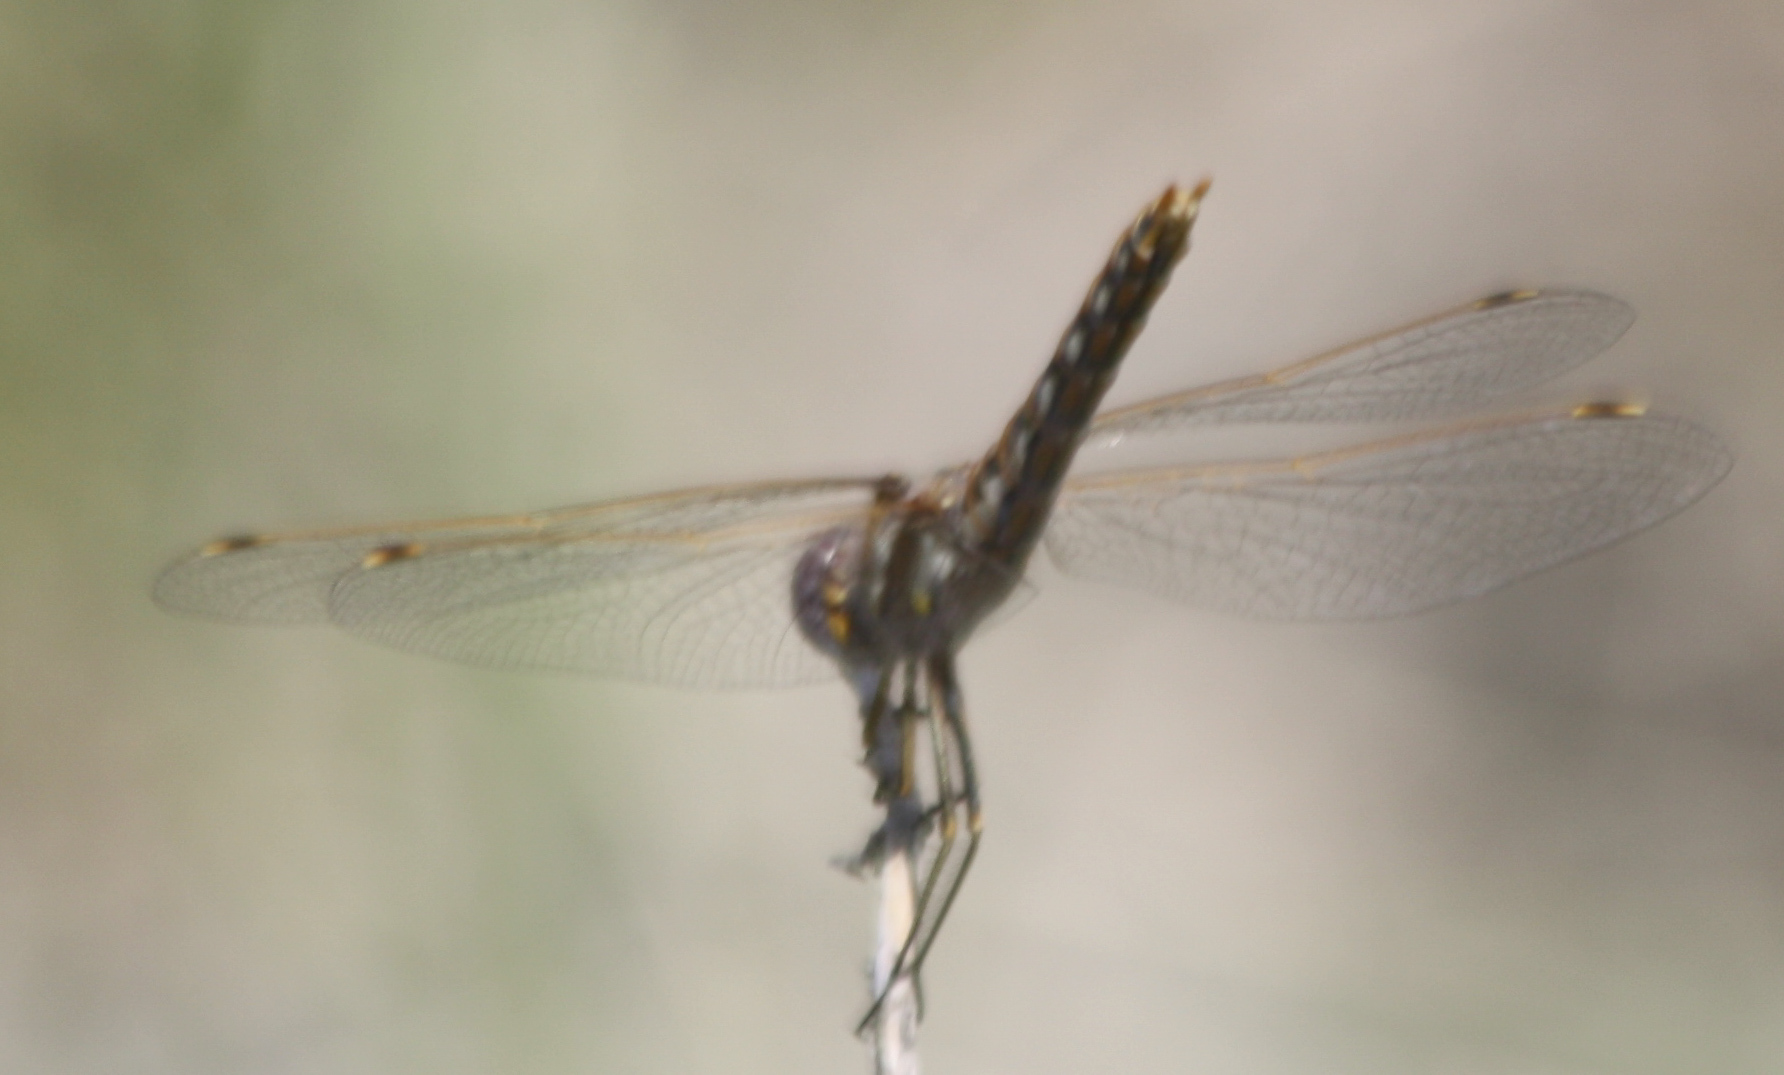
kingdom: Animalia
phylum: Arthropoda
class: Insecta
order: Odonata
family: Libellulidae
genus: Sympetrum
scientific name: Sympetrum corruptum
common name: Variegated meadowhawk
